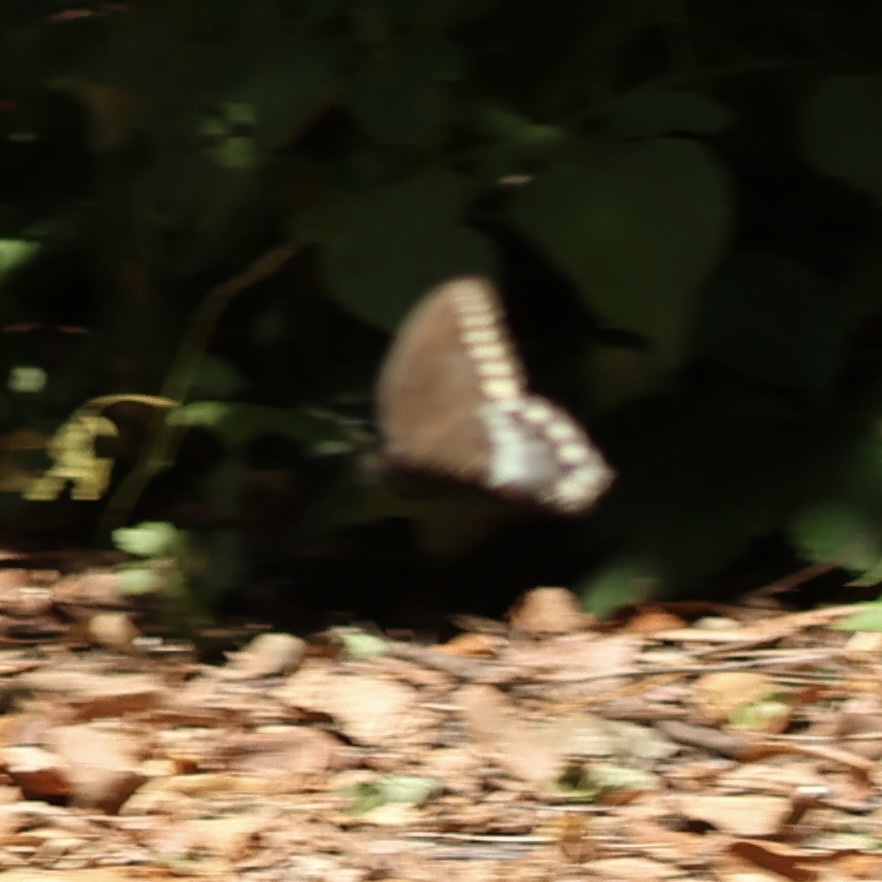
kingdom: Animalia
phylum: Arthropoda
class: Insecta
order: Lepidoptera
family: Papilionidae
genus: Papilio
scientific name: Papilio troilus
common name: Spicebush swallowtail
